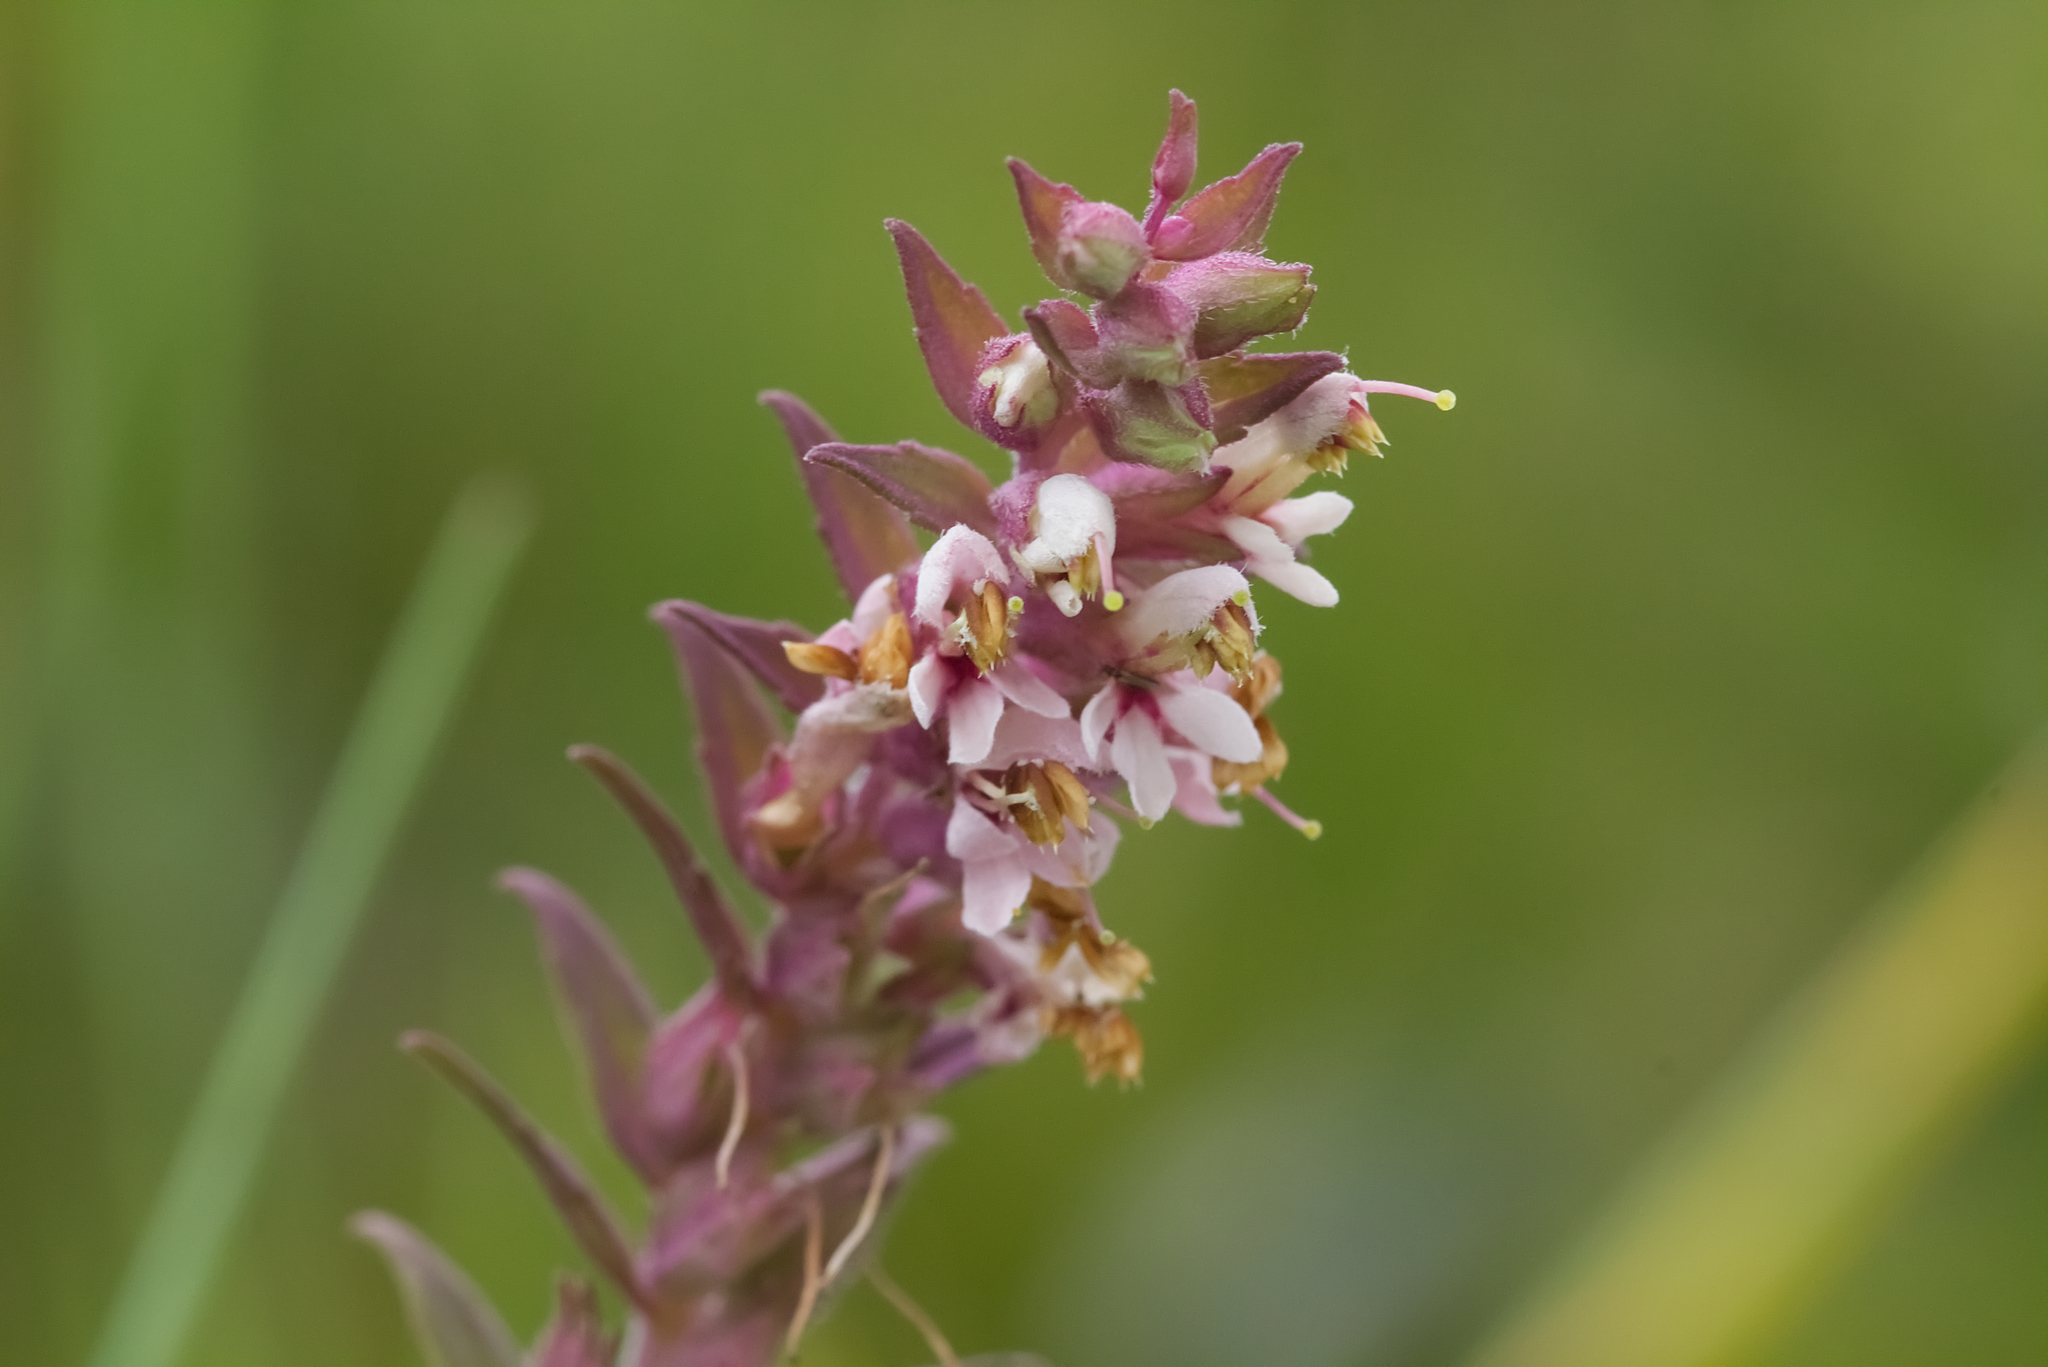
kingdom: Plantae
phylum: Tracheophyta
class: Magnoliopsida
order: Lamiales
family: Orobanchaceae
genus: Odontites
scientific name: Odontites vulgaris
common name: Broomrape
